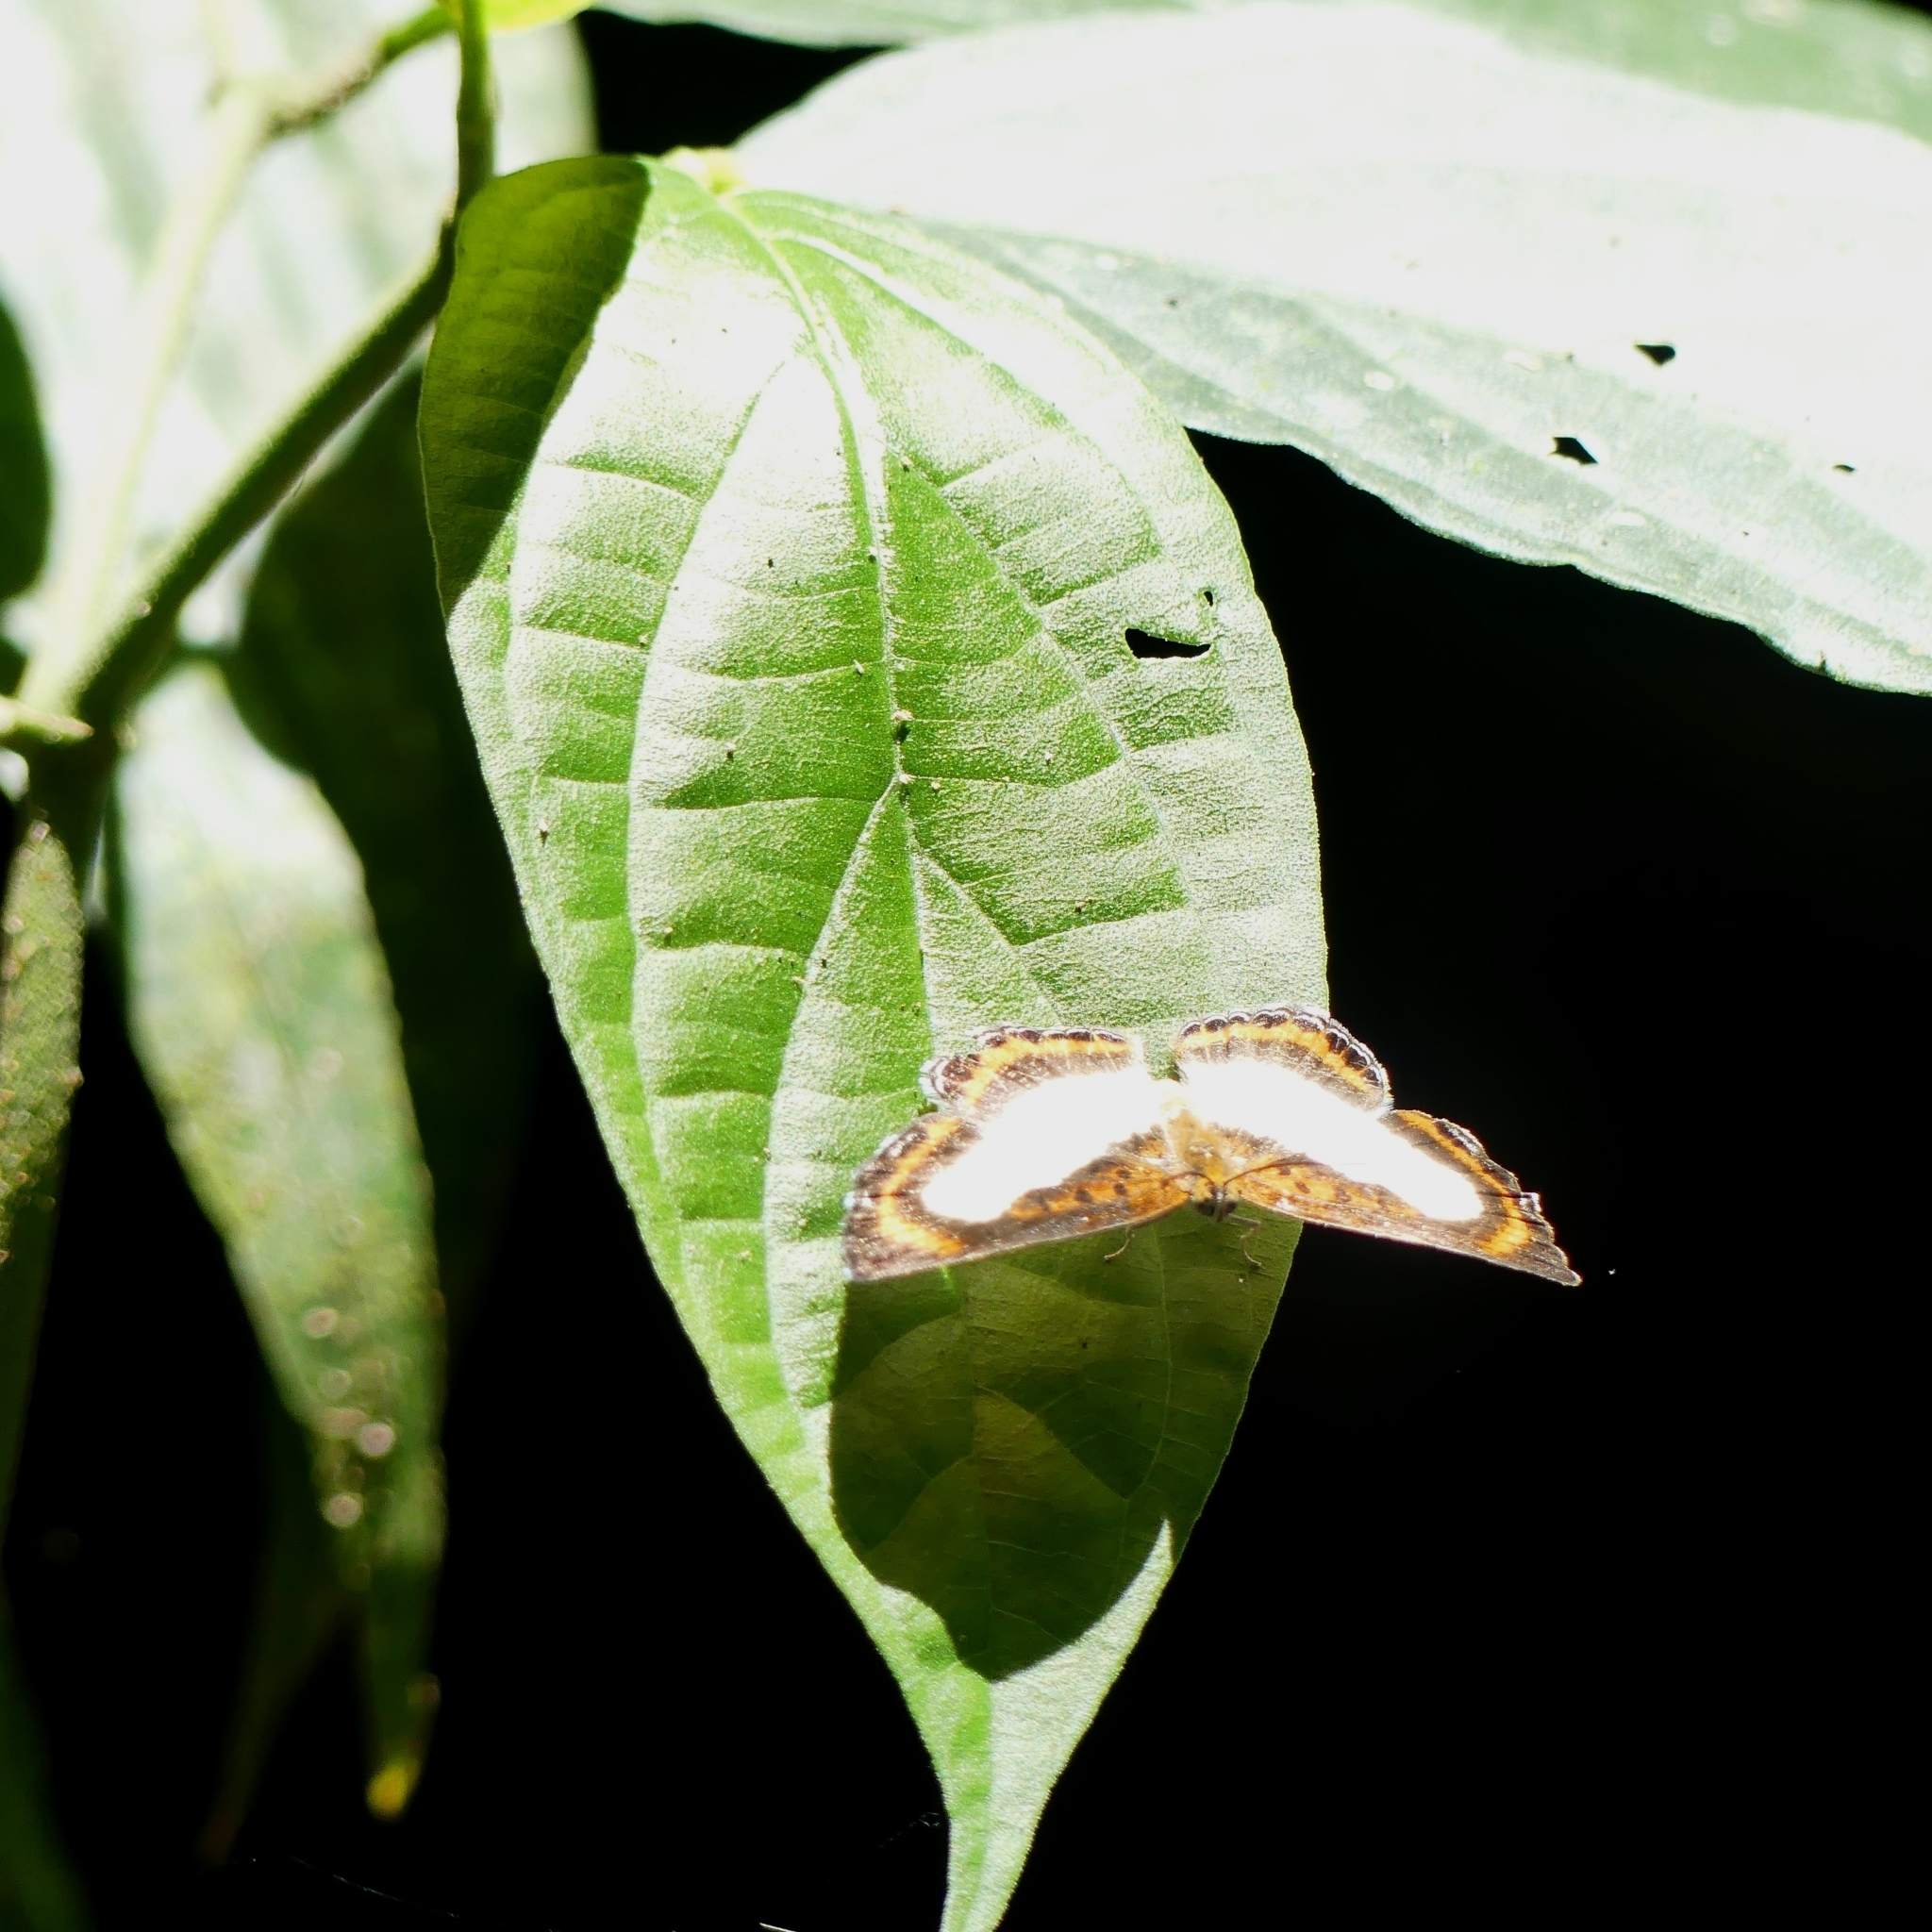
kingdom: Animalia
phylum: Arthropoda
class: Insecta
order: Lepidoptera
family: Riodinidae
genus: Nymula
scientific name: Nymula gela
